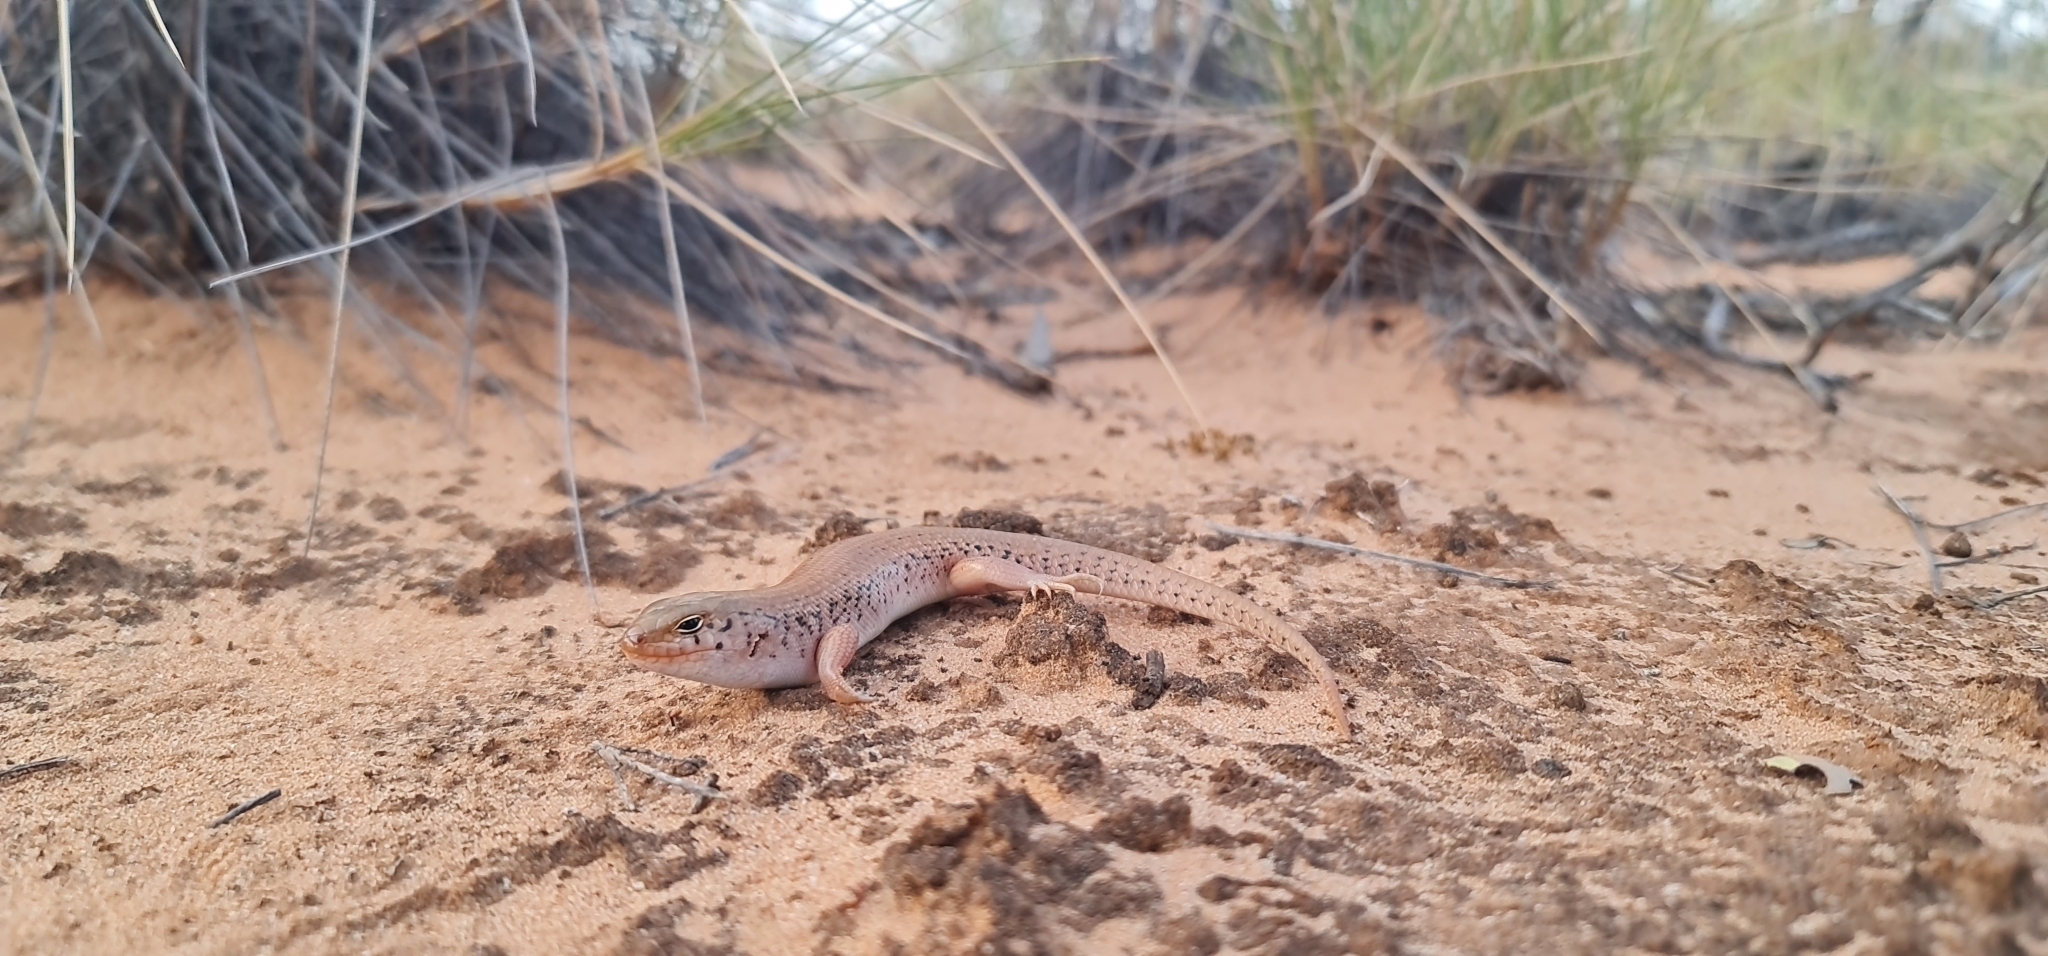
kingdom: Animalia
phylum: Chordata
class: Squamata
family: Scincidae
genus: Liopholis
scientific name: Liopholis inornata
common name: Desert skink
